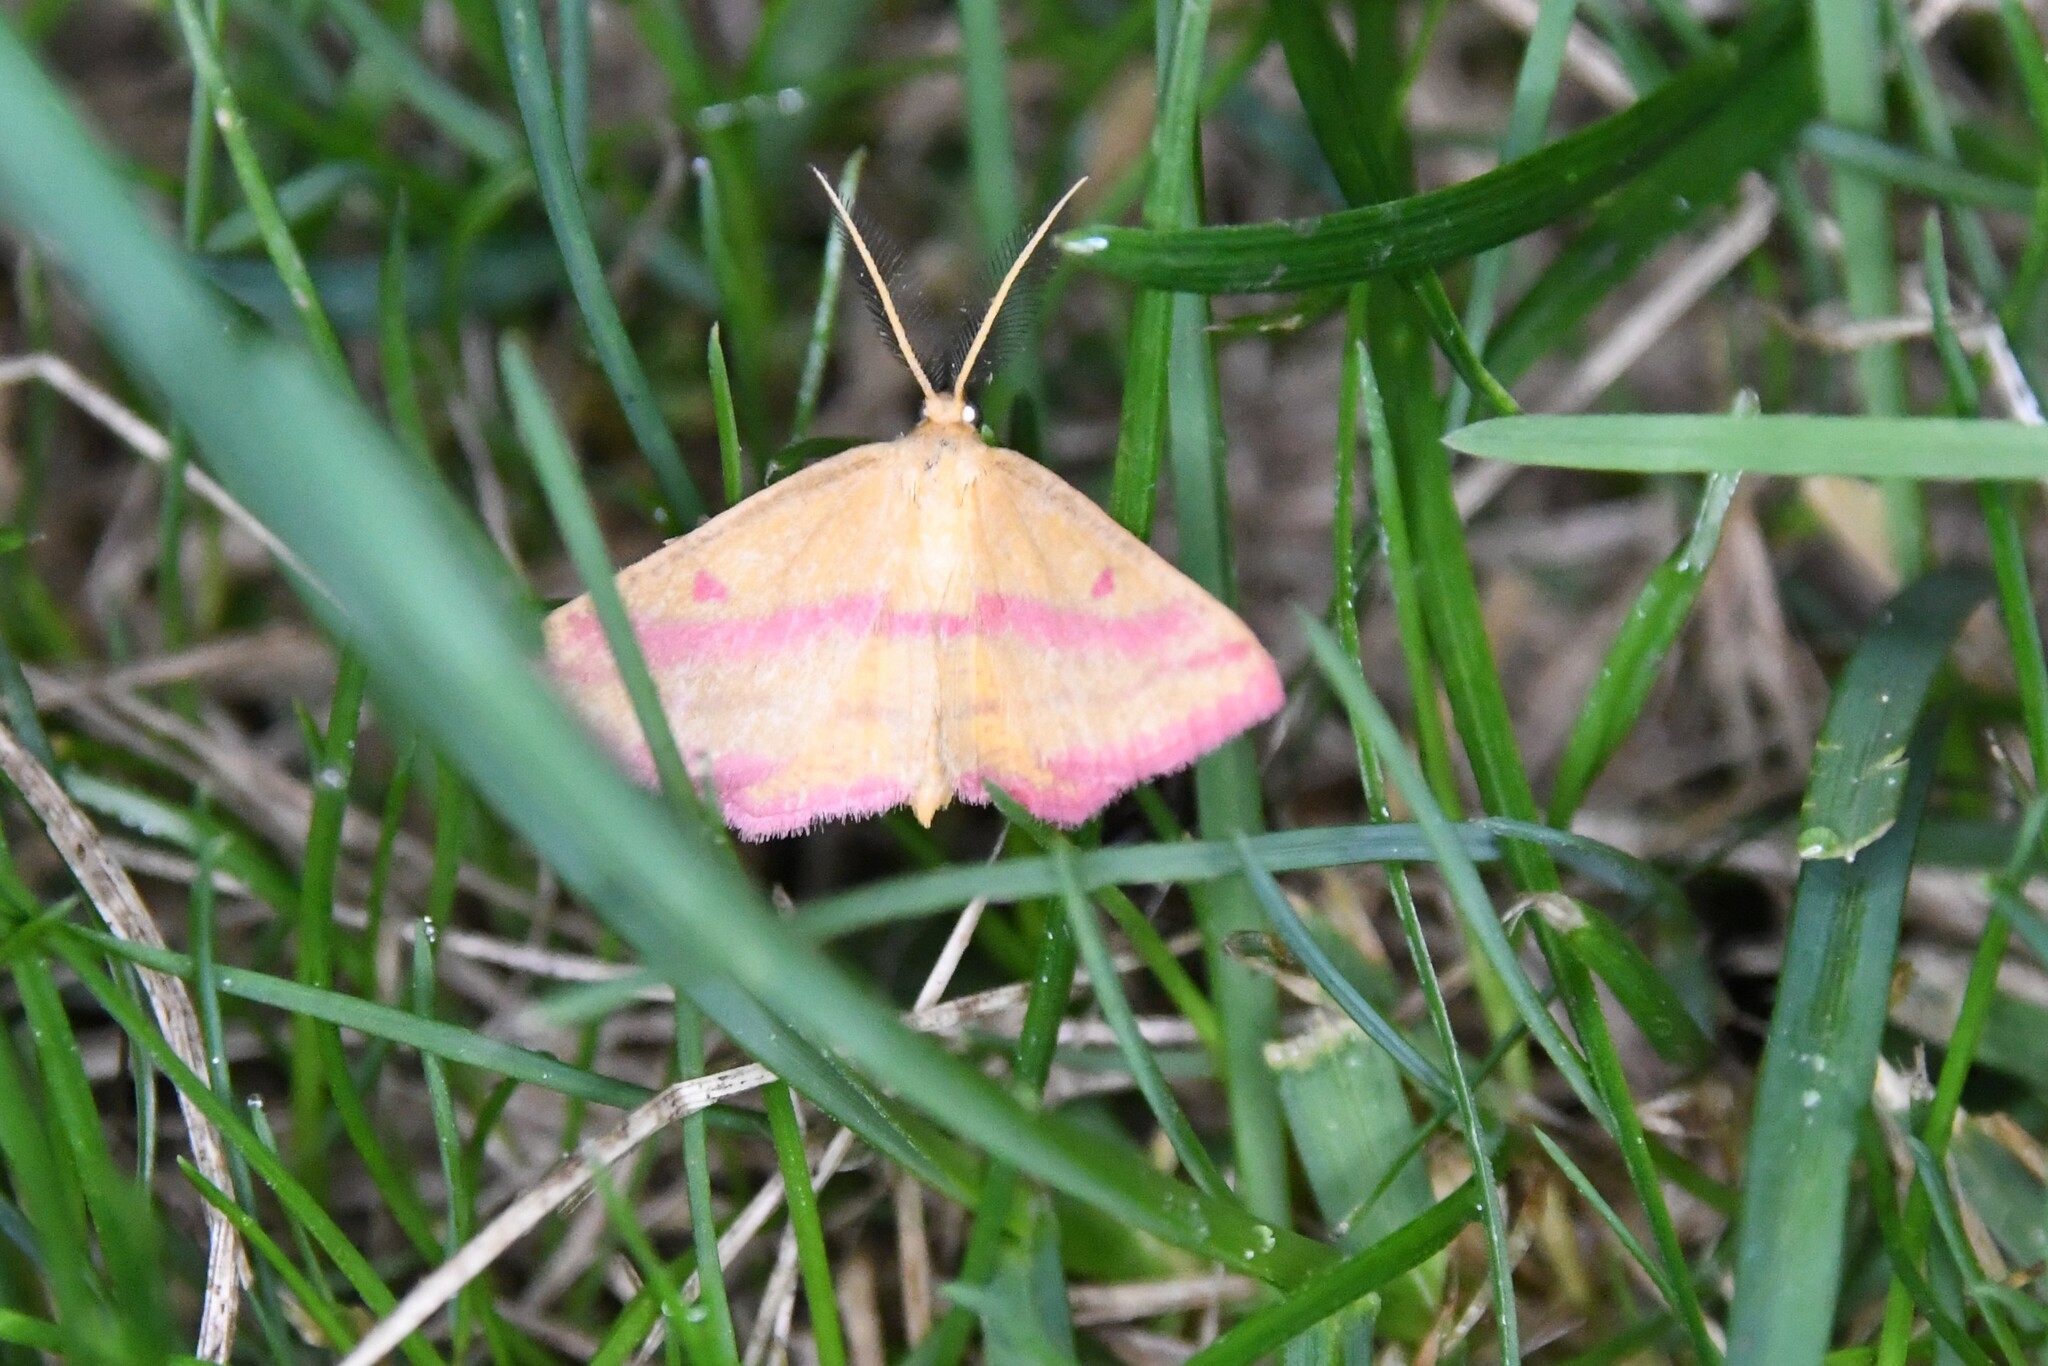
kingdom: Animalia
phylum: Arthropoda
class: Insecta
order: Lepidoptera
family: Geometridae
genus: Haematopis
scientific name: Haematopis grataria
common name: Chickweed geometer
